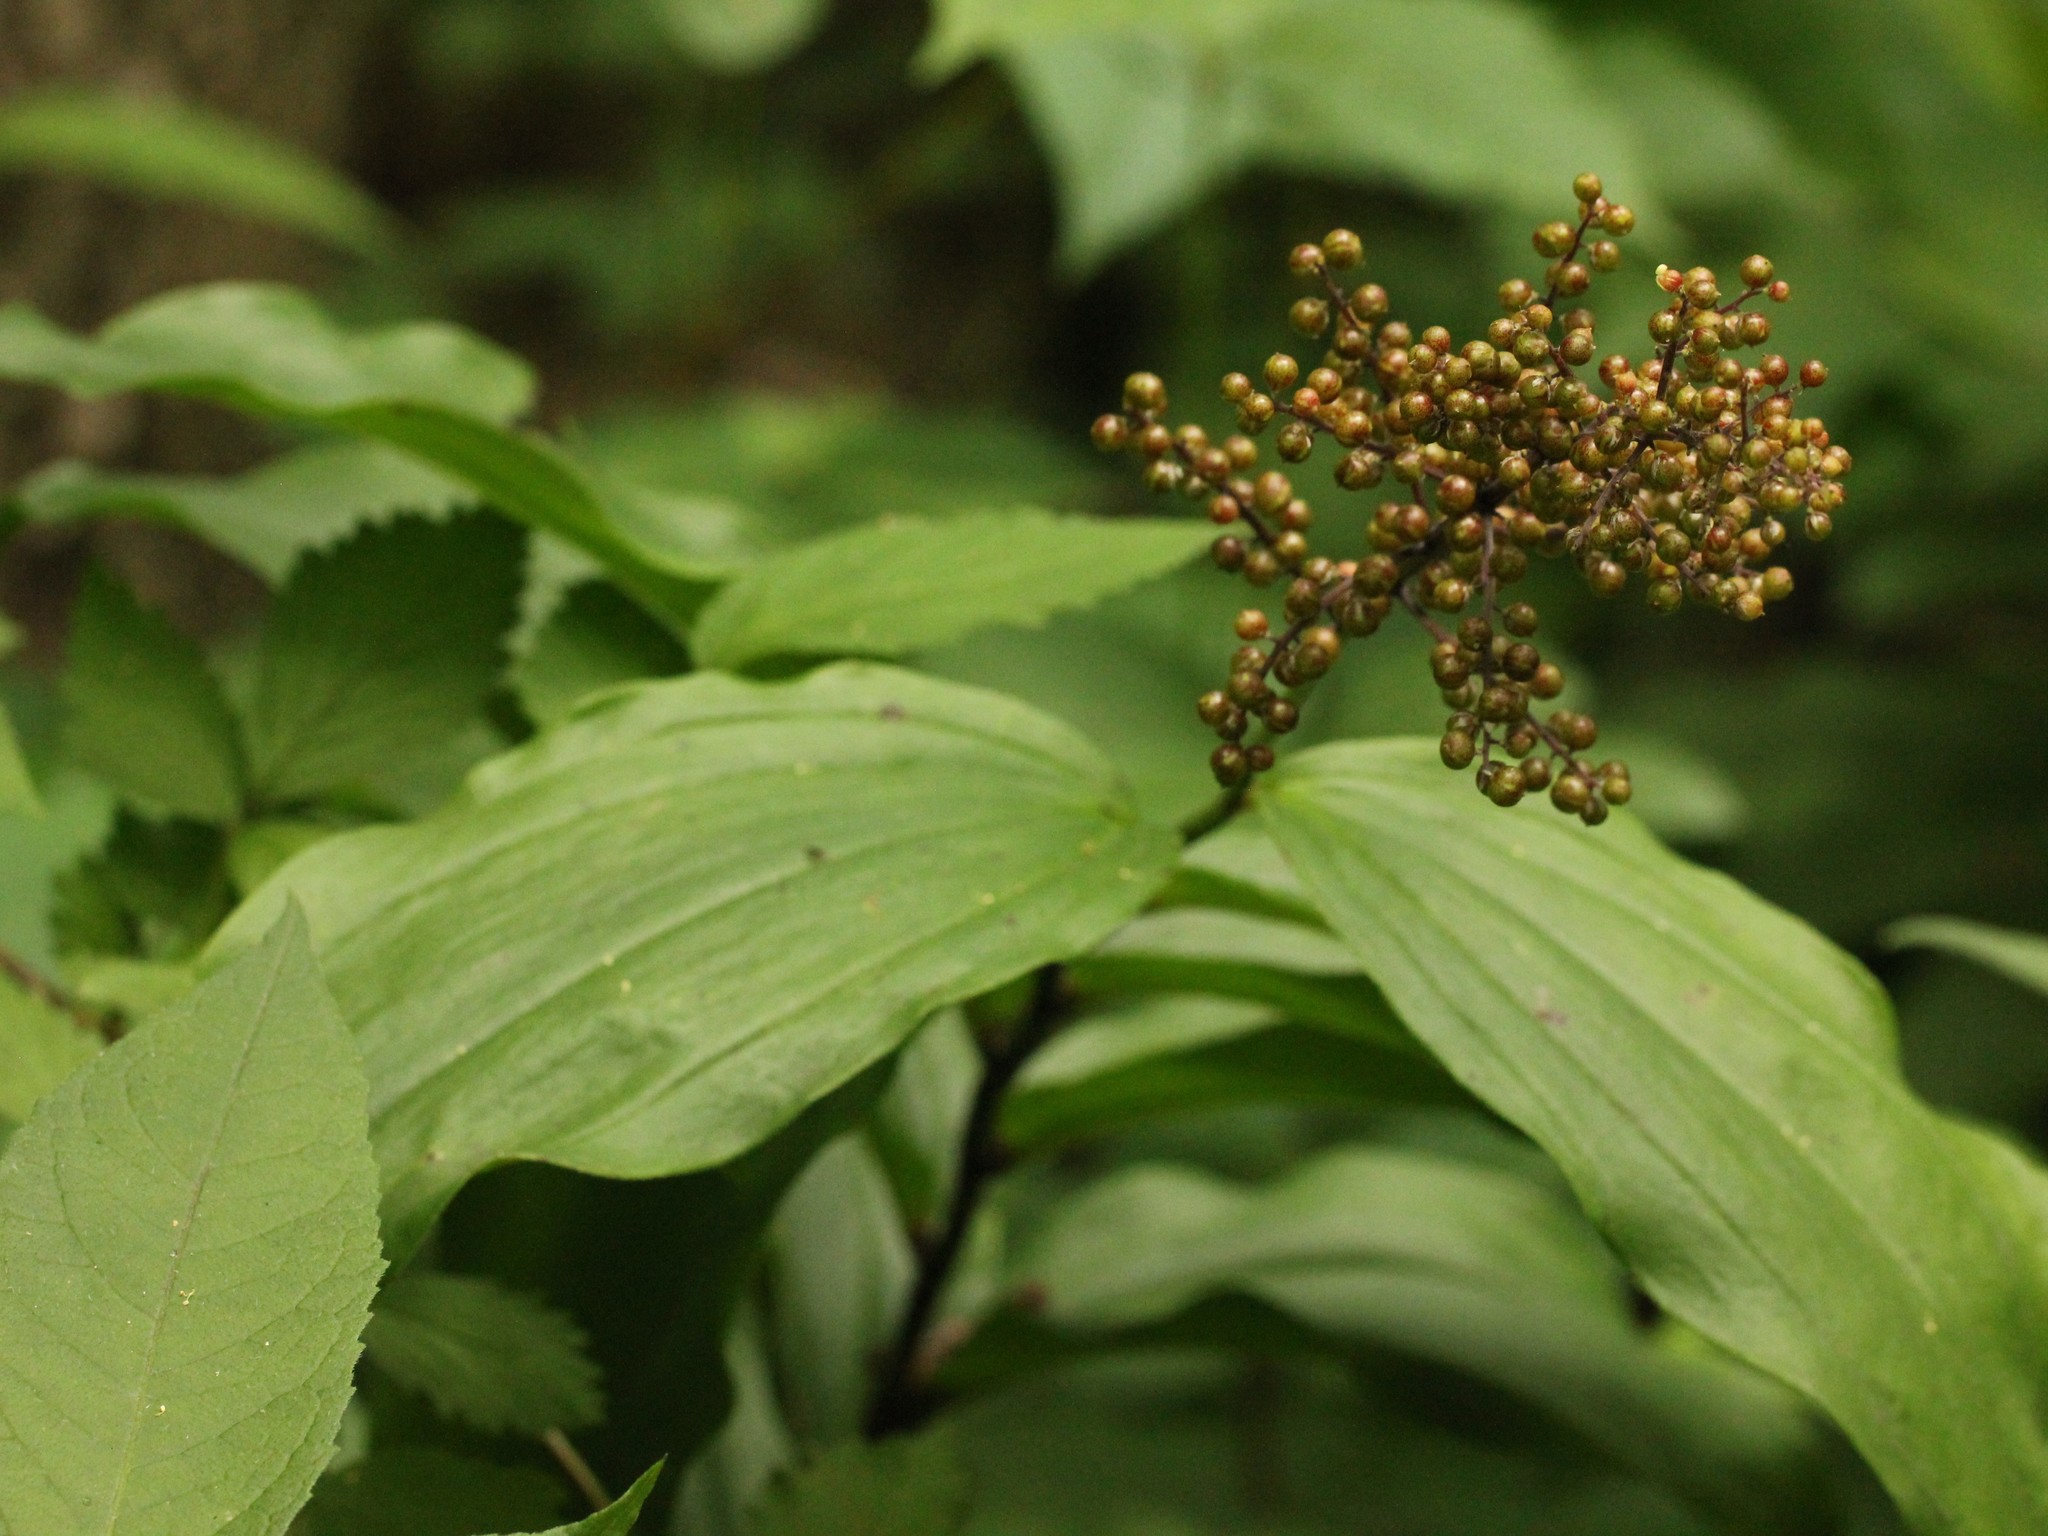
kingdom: Plantae
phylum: Tracheophyta
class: Liliopsida
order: Asparagales
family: Asparagaceae
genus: Maianthemum
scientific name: Maianthemum racemosum
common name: False spikenard
